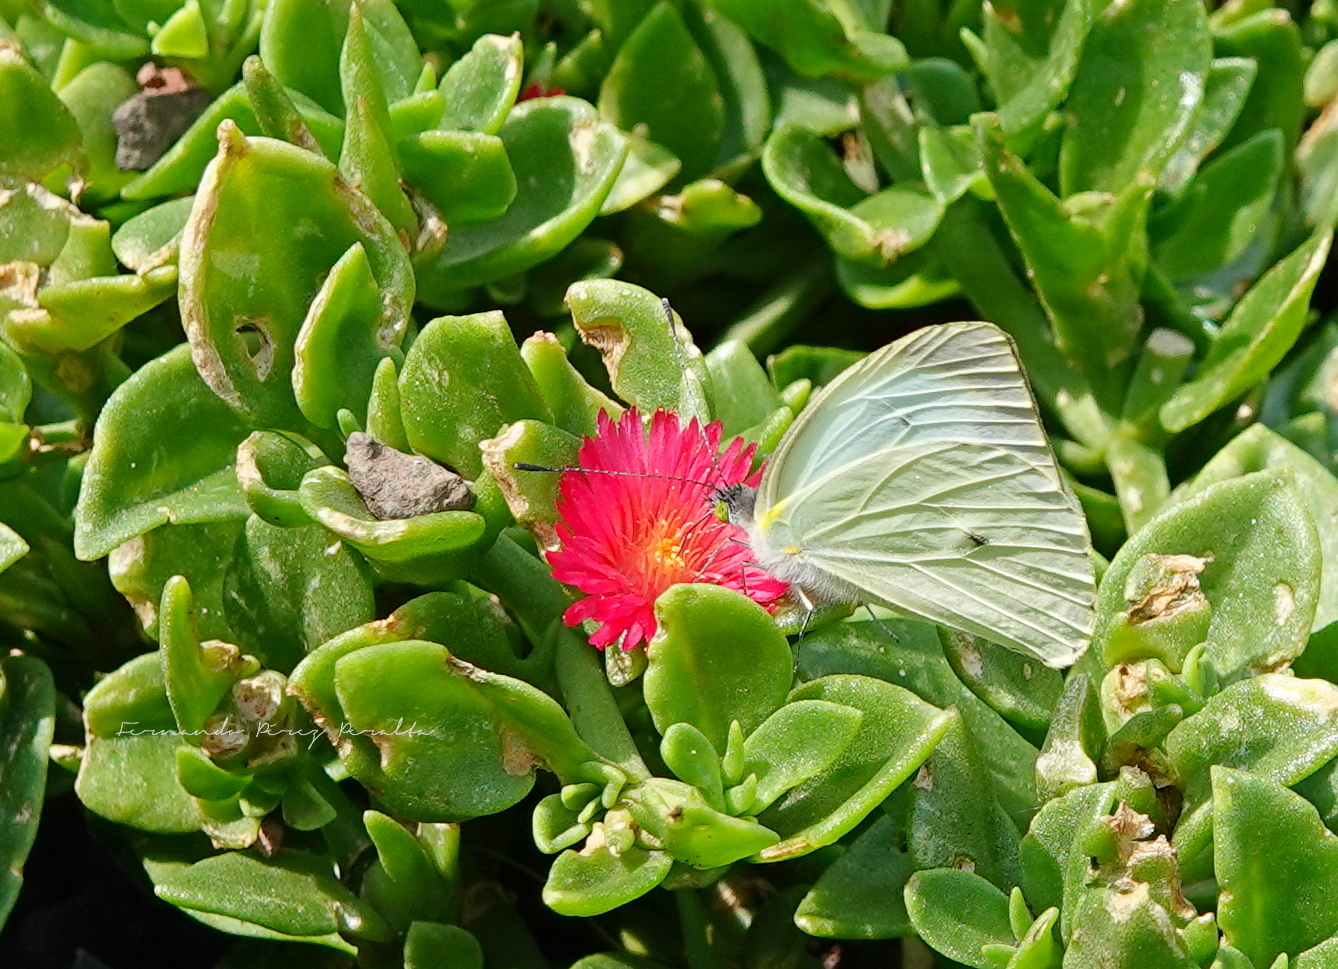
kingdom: Animalia
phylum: Arthropoda
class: Insecta
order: Lepidoptera
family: Pieridae
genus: Leptophobia
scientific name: Leptophobia aripa
